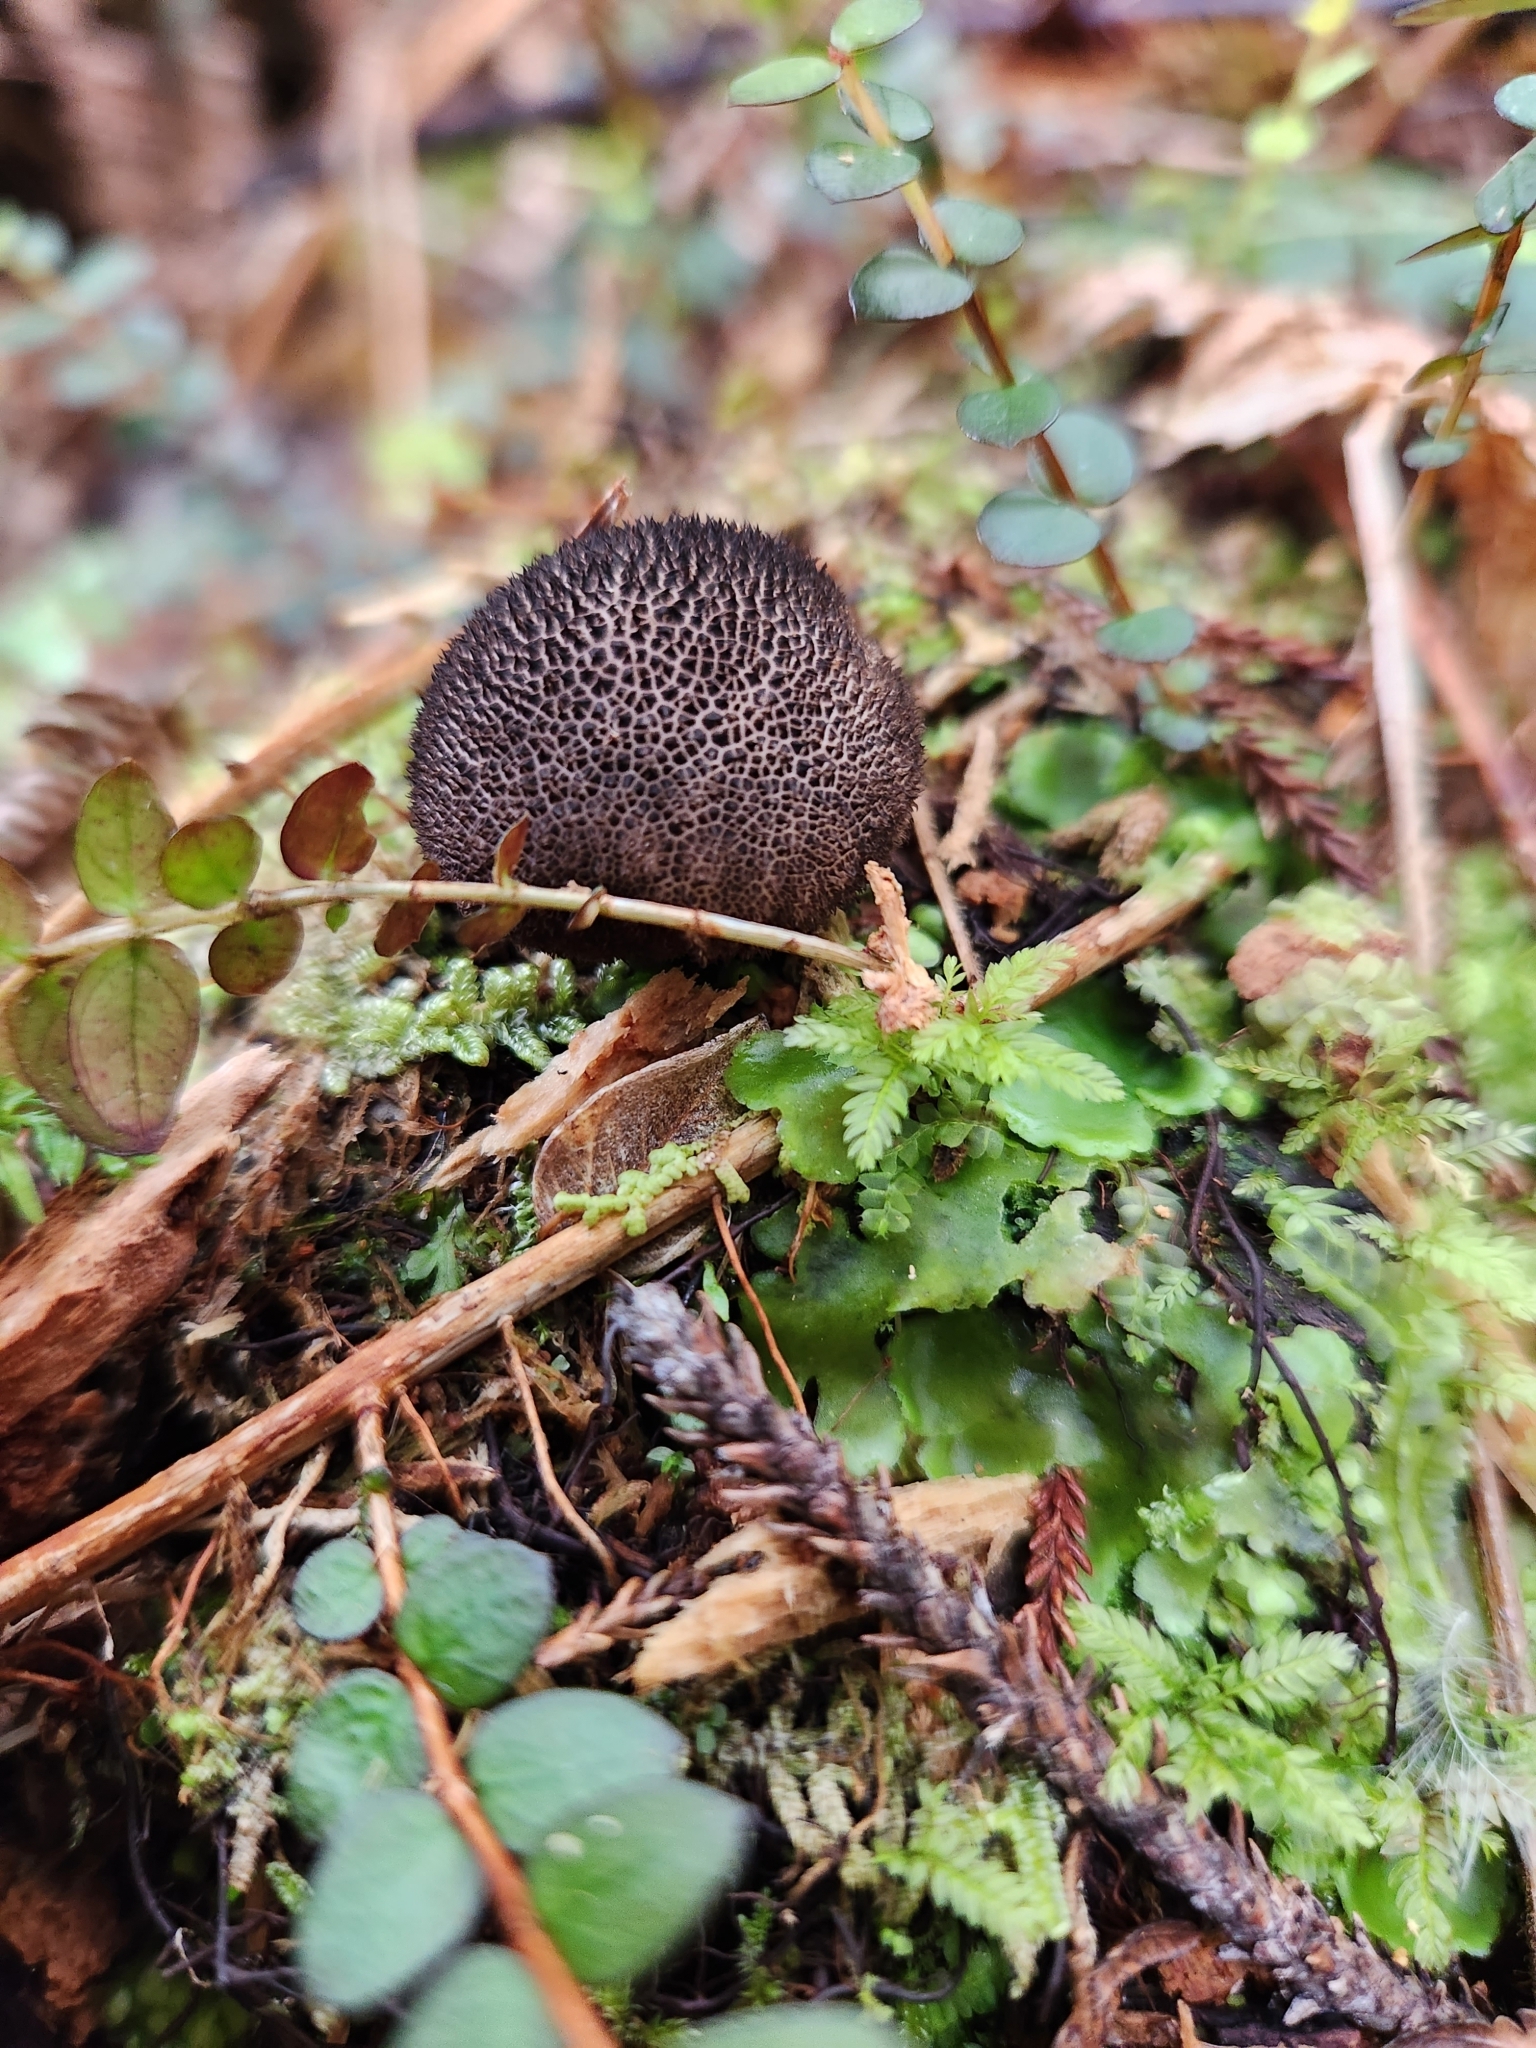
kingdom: Fungi
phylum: Basidiomycota
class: Agaricomycetes
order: Agaricales
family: Lycoperdaceae
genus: Lycoperdon
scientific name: Lycoperdon compactum
